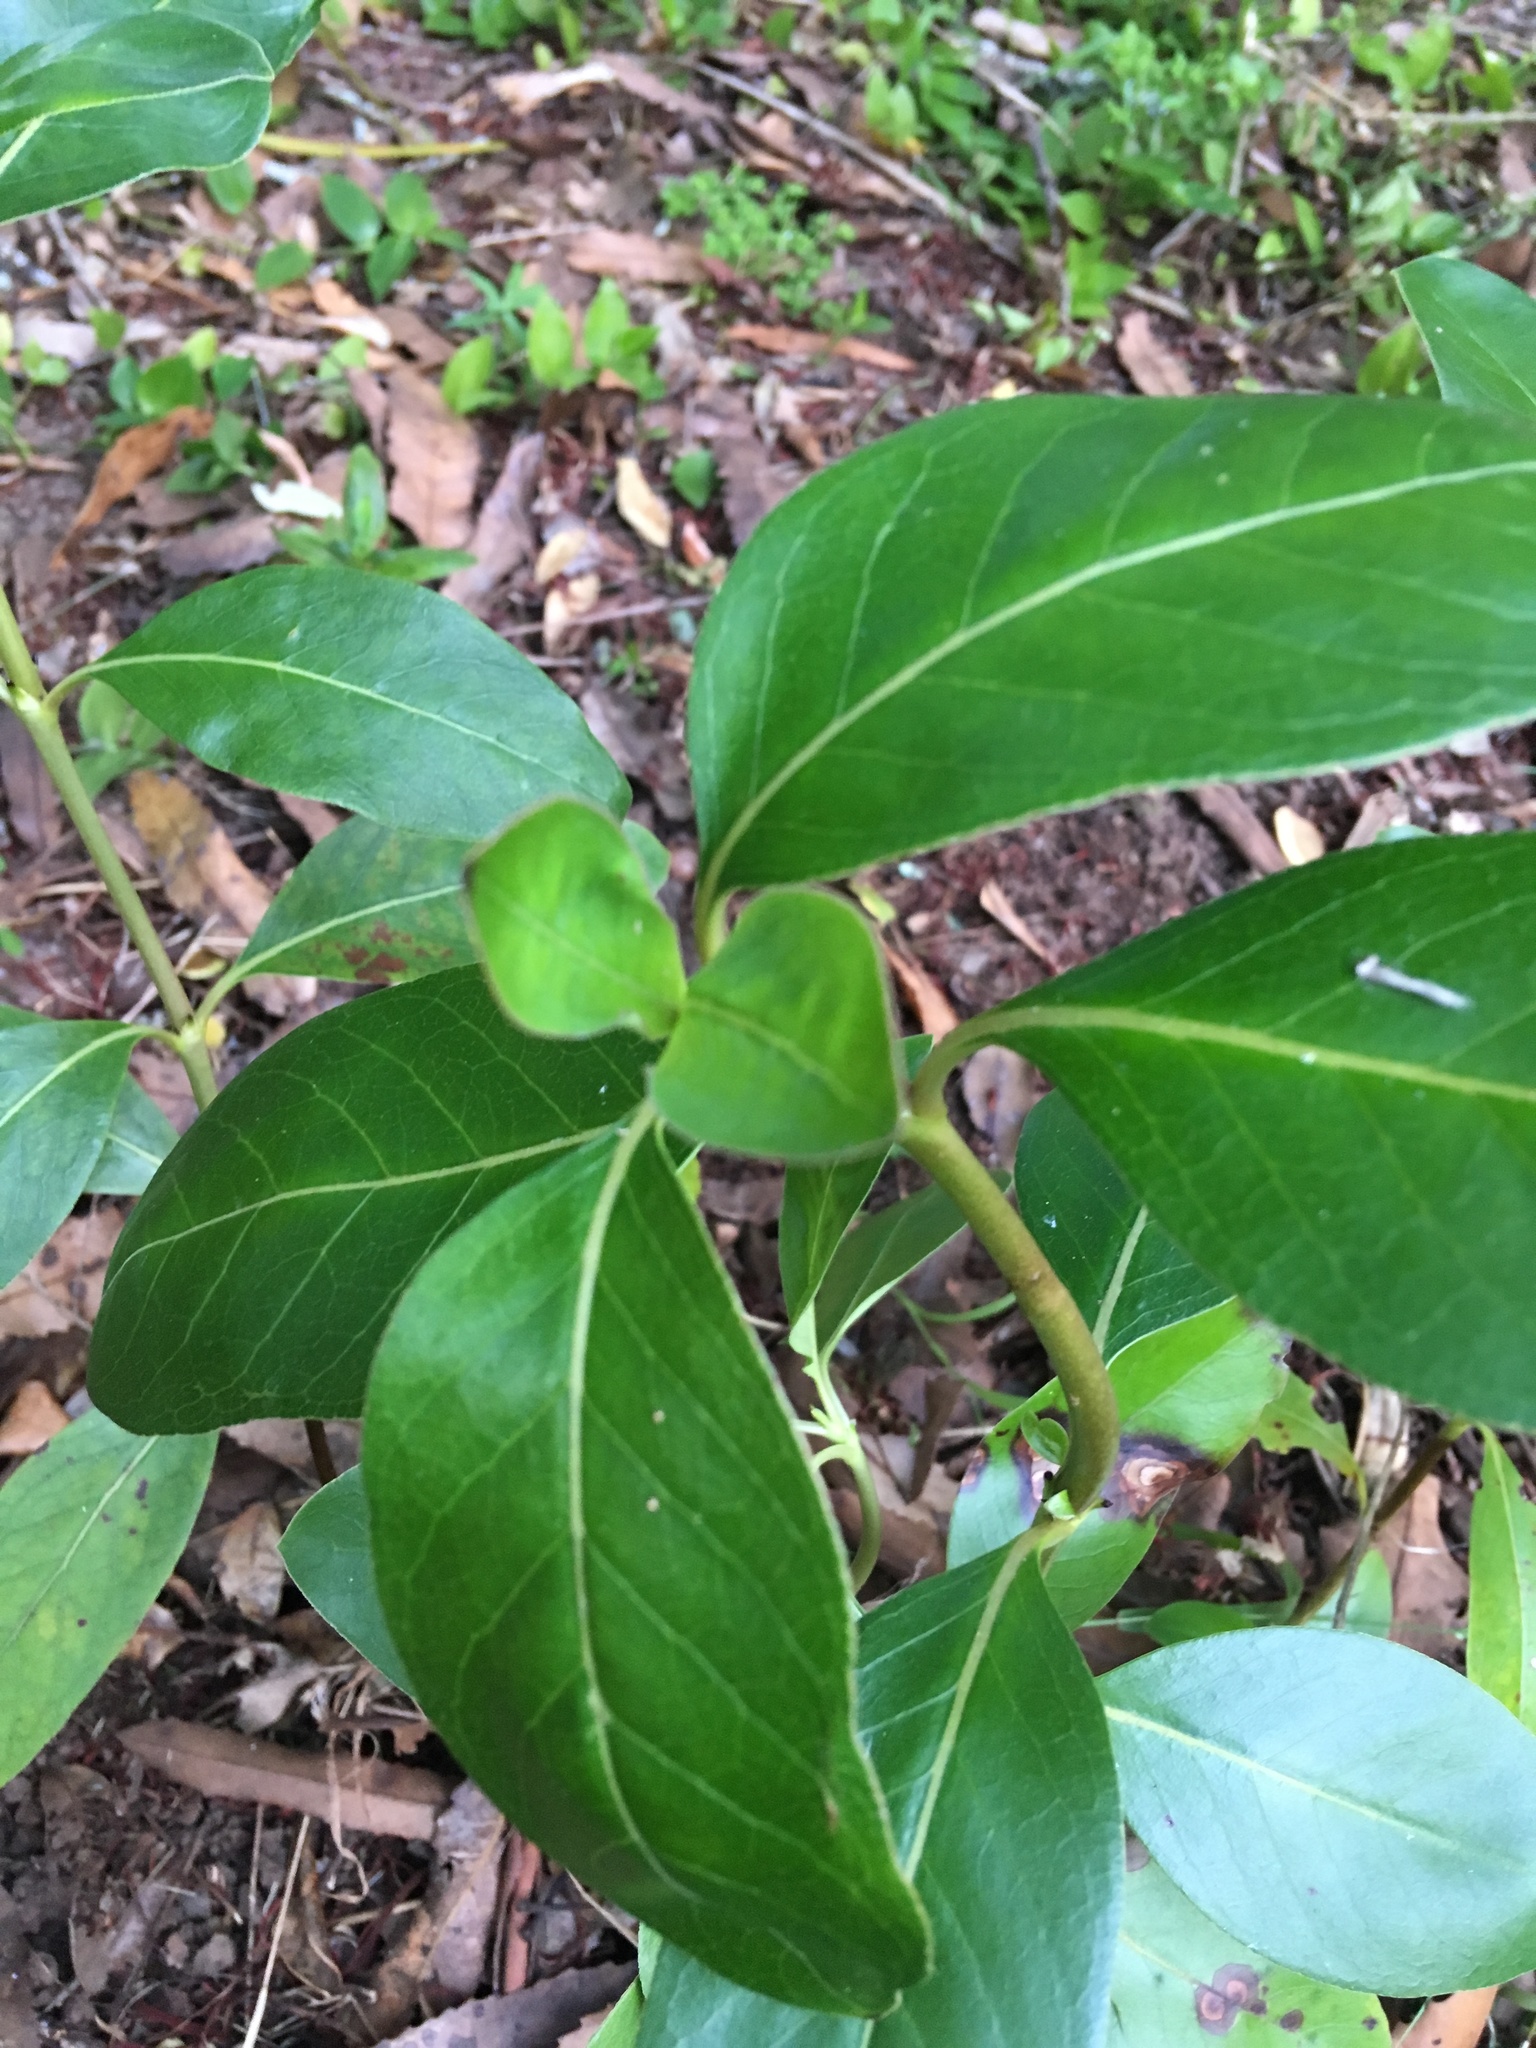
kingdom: Plantae
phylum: Tracheophyta
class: Magnoliopsida
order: Gentianales
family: Rubiaceae
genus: Coprosma
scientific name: Coprosma robusta
